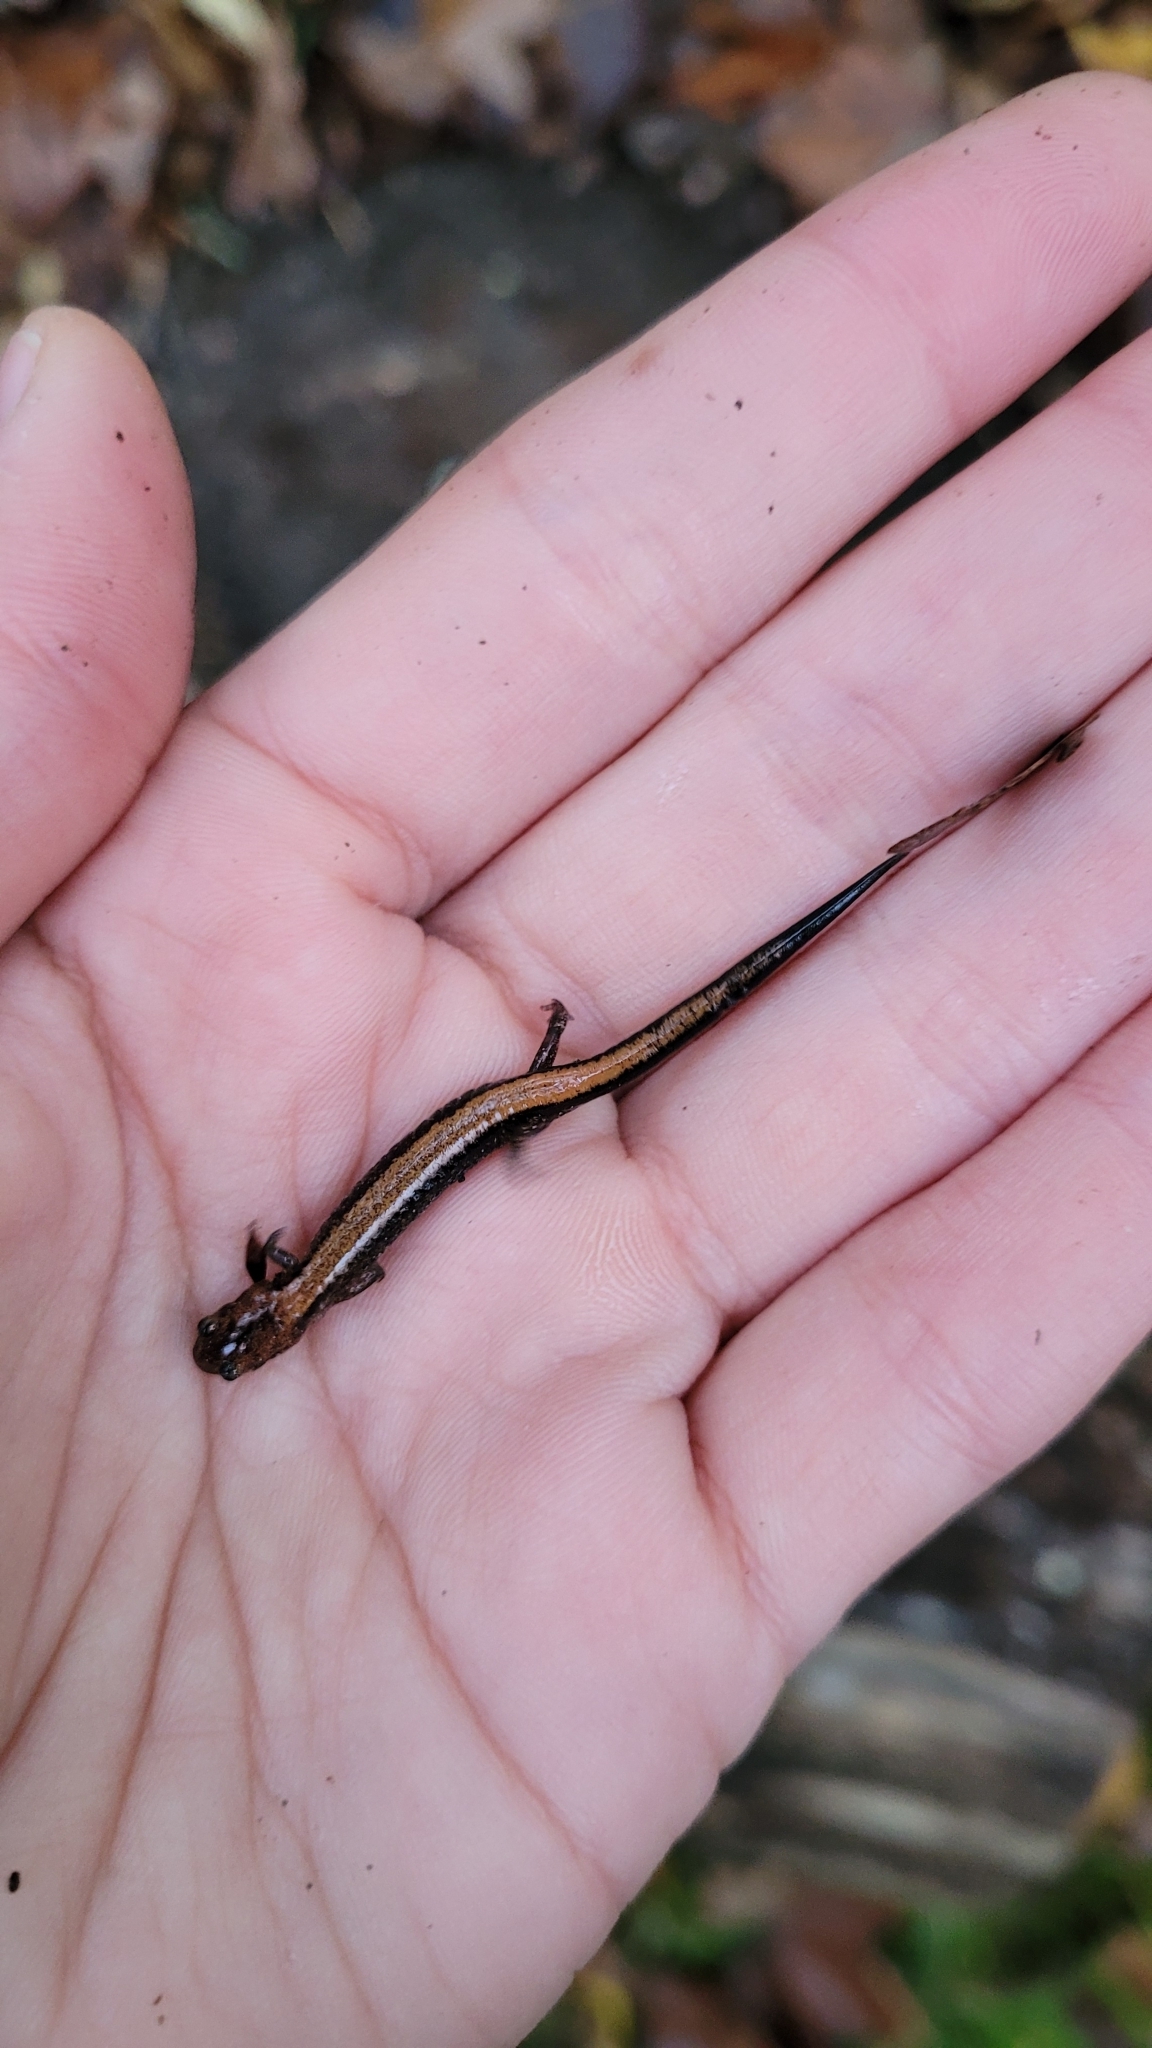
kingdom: Animalia
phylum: Chordata
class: Amphibia
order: Caudata
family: Plethodontidae
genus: Plethodon
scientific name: Plethodon cinereus
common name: Redback salamander
